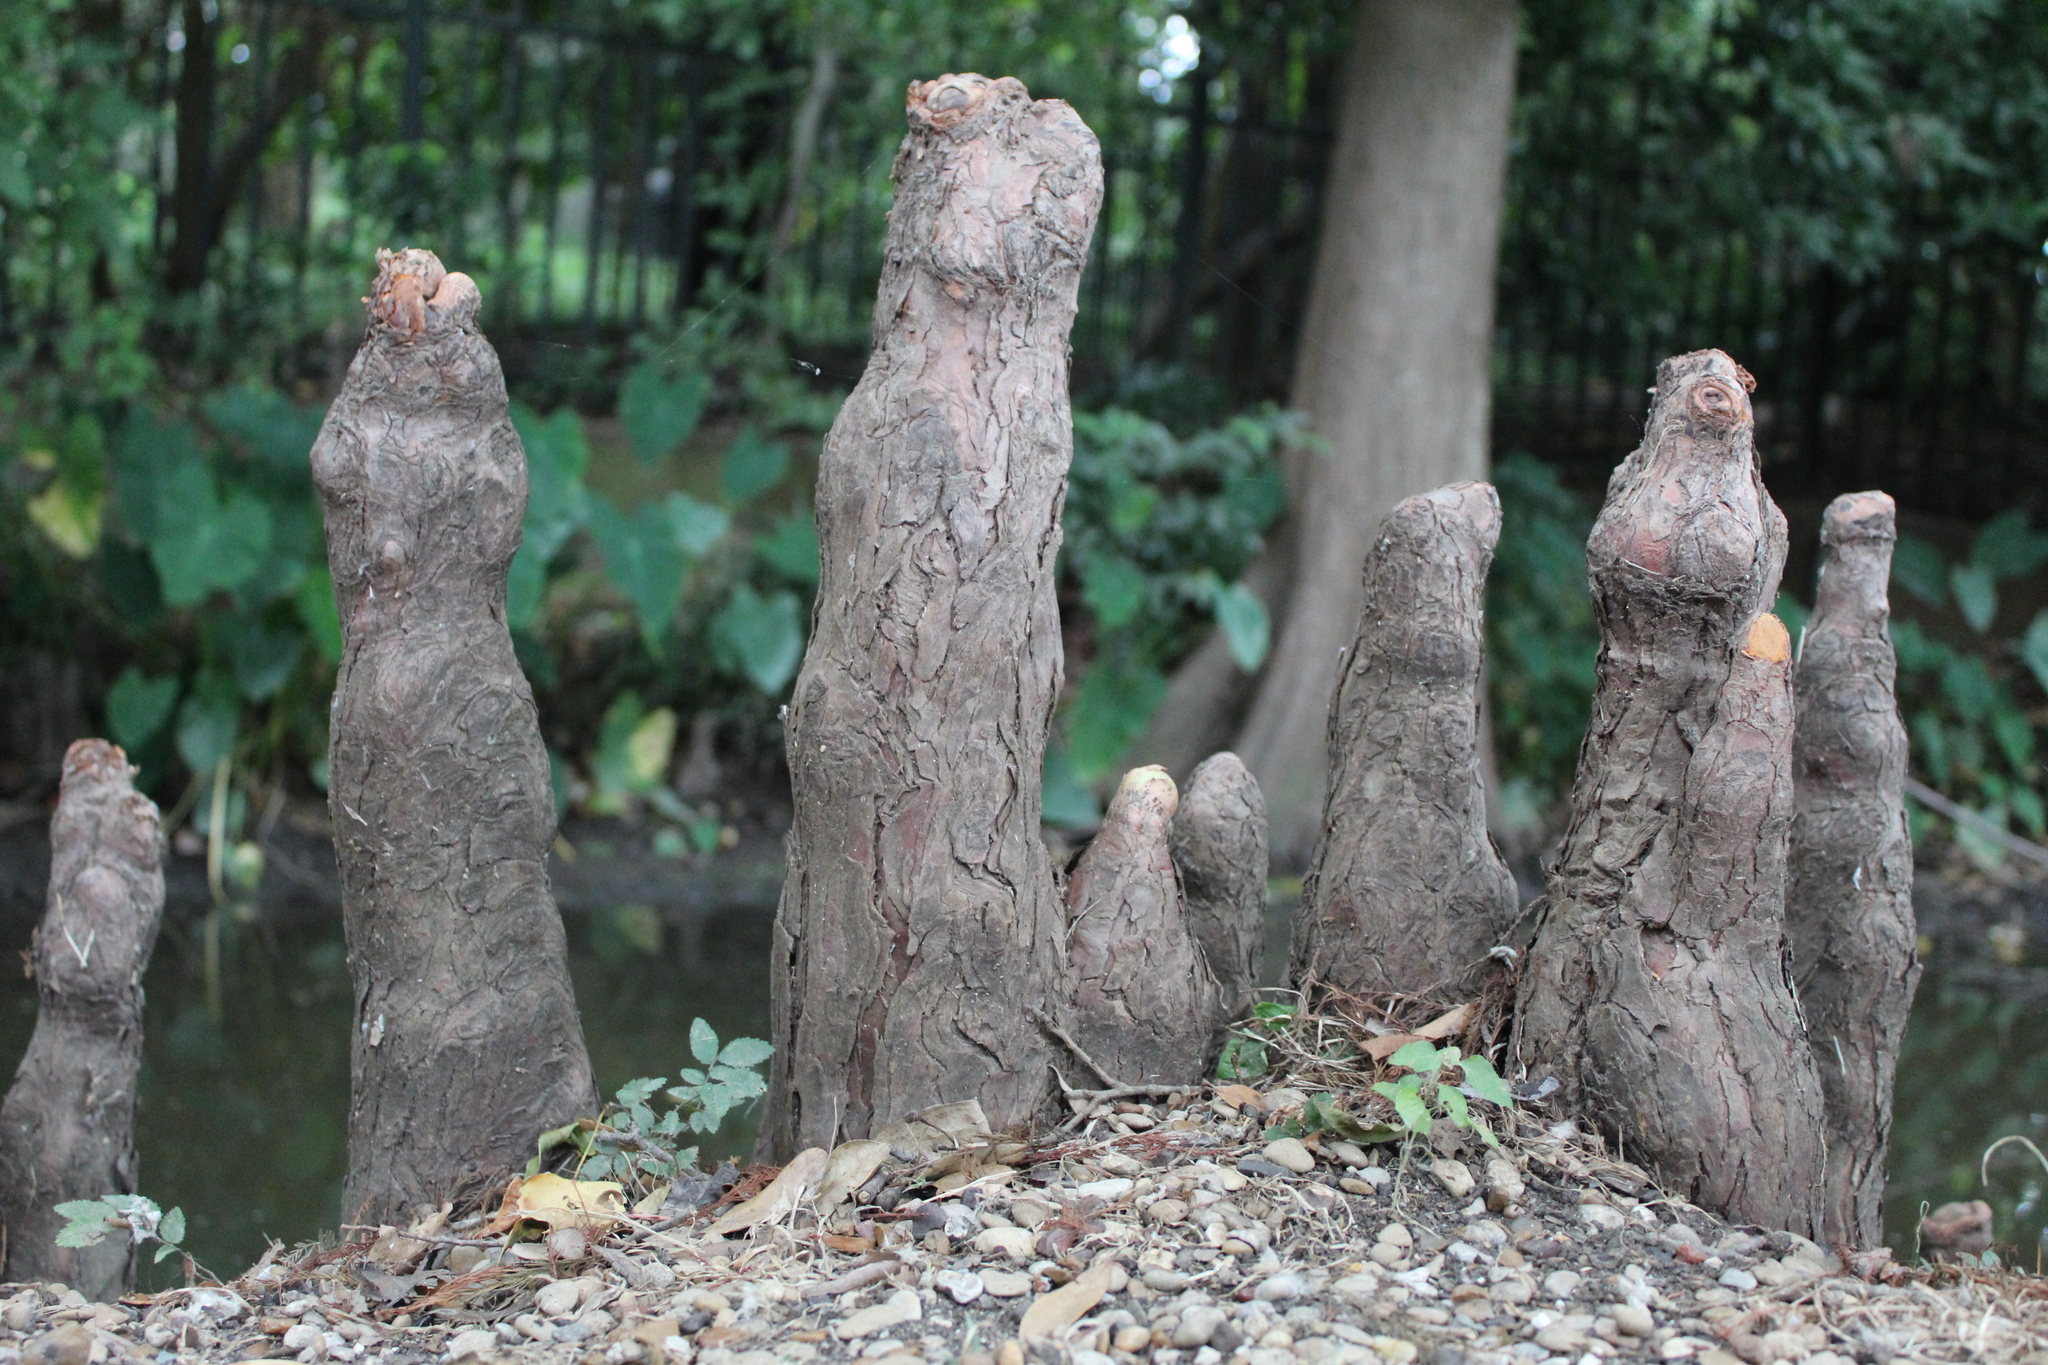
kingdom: Plantae
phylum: Tracheophyta
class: Pinopsida
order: Pinales
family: Cupressaceae
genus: Taxodium
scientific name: Taxodium distichum
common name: Bald cypress
